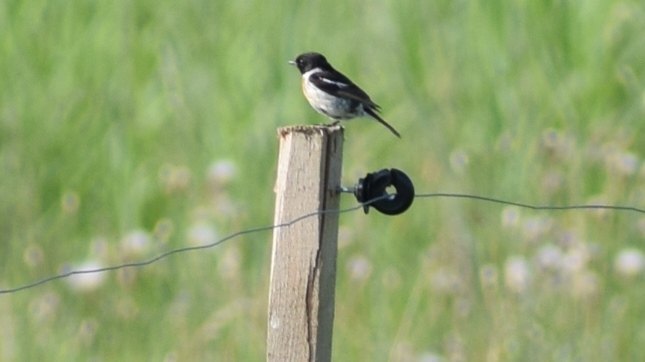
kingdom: Animalia
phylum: Chordata
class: Aves
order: Passeriformes
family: Muscicapidae
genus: Saxicola
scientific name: Saxicola rubicola
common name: European stonechat
